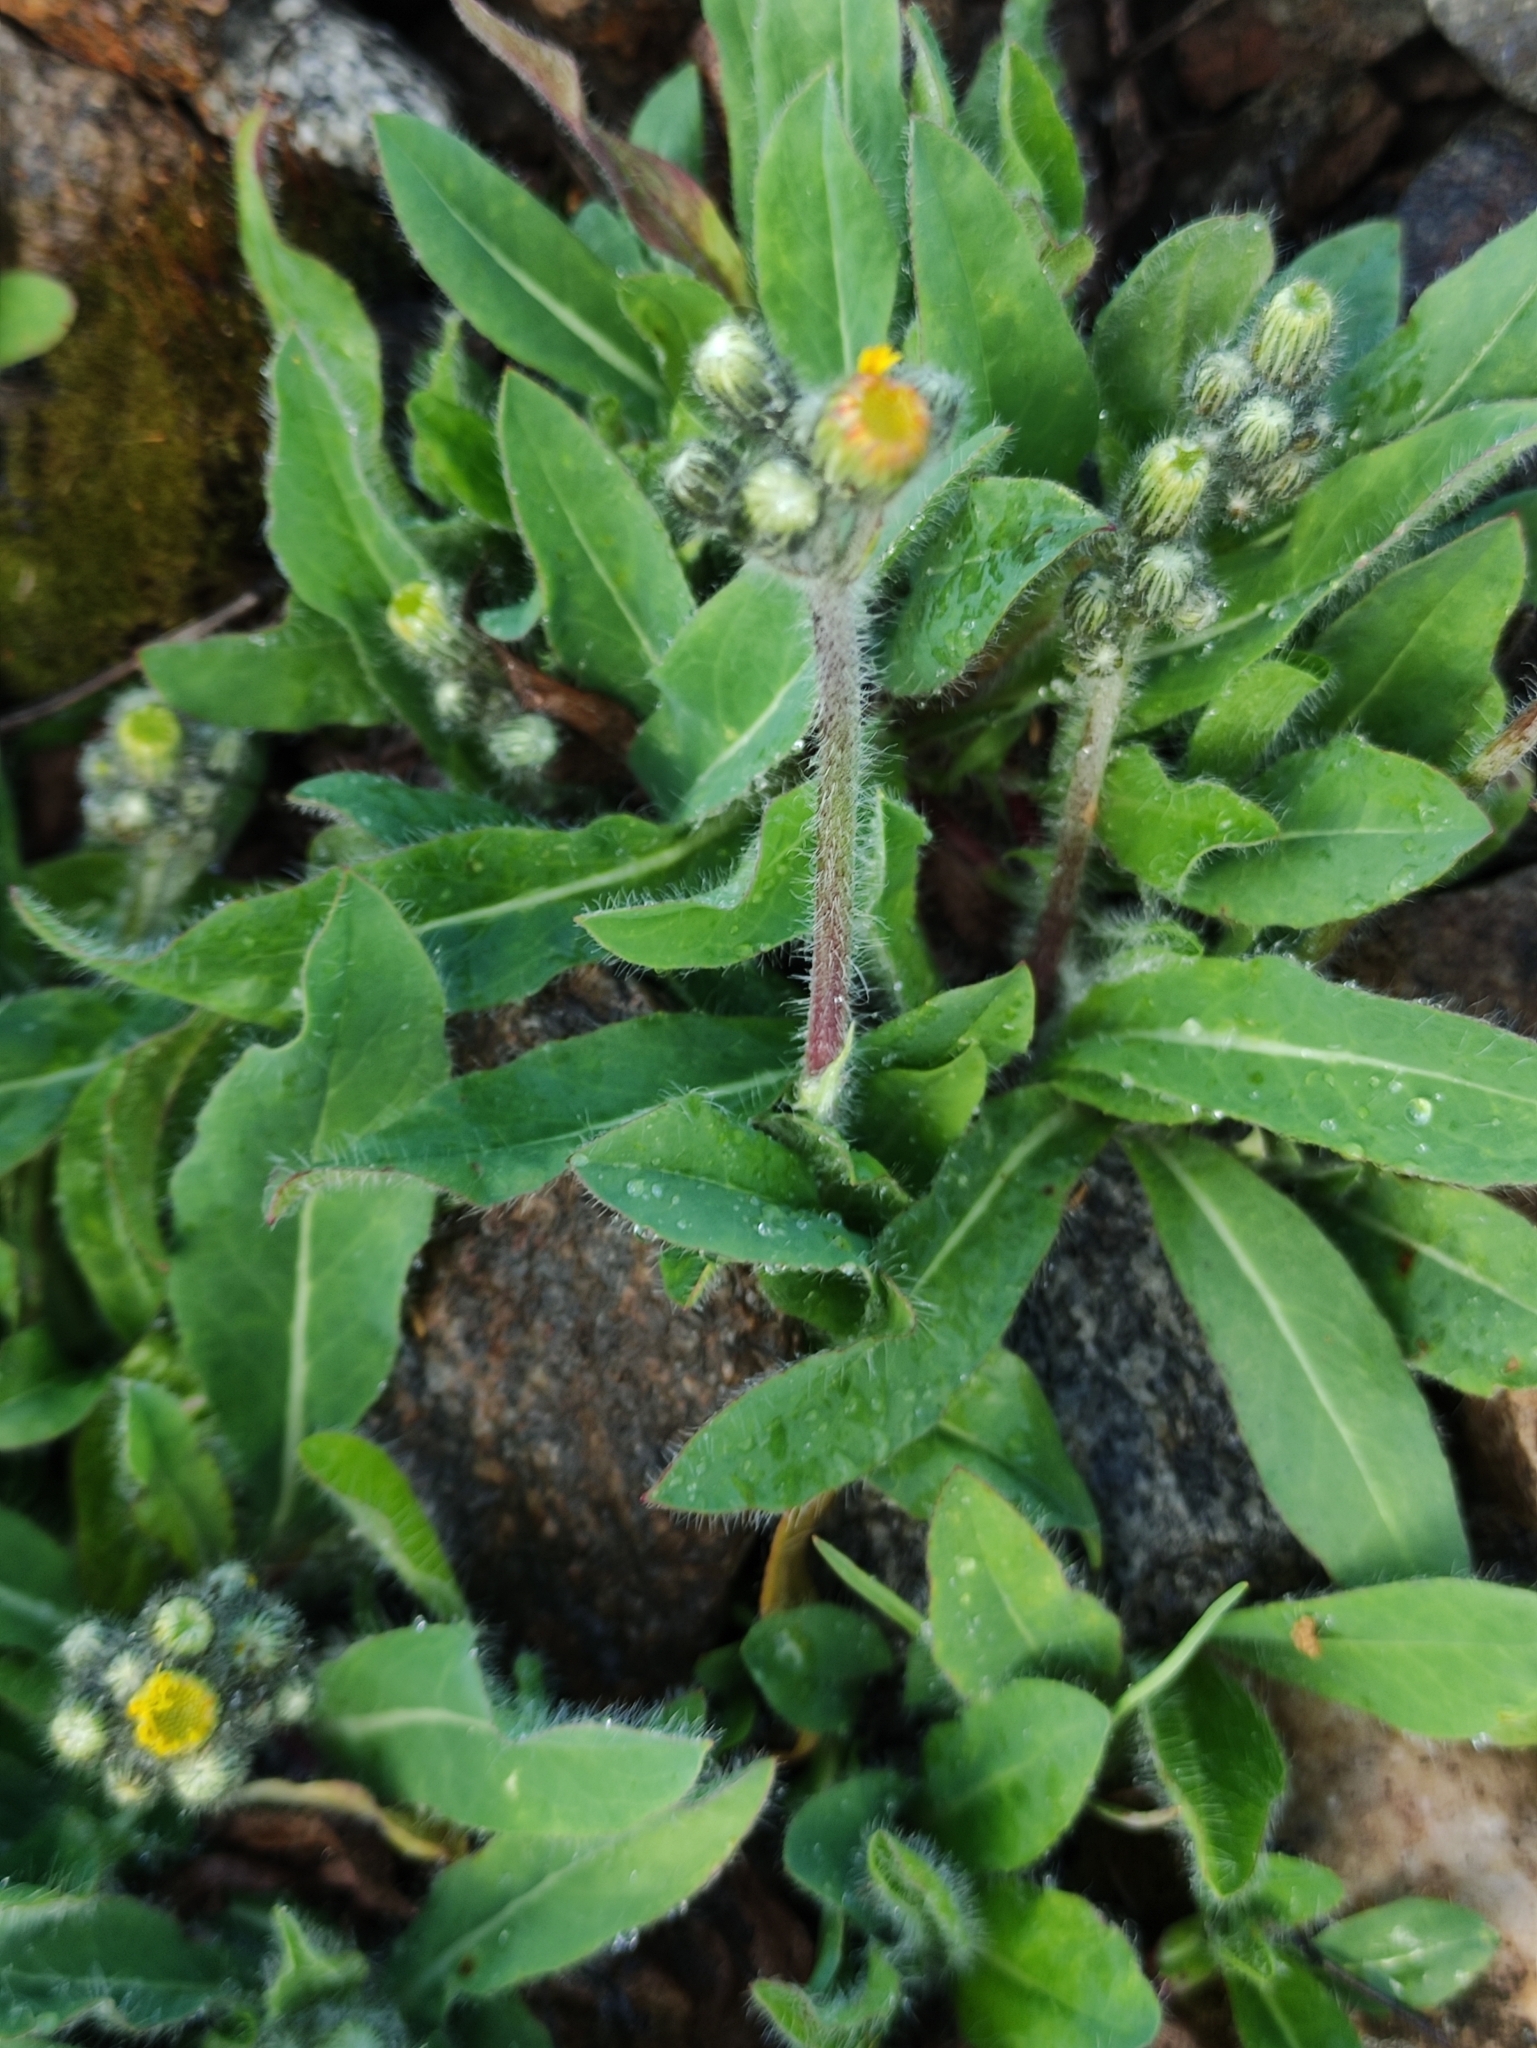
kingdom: Plantae
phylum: Tracheophyta
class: Magnoliopsida
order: Asterales
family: Asteraceae
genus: Pilosella
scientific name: Pilosella officinarum
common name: Mouse-ear hawkweed
